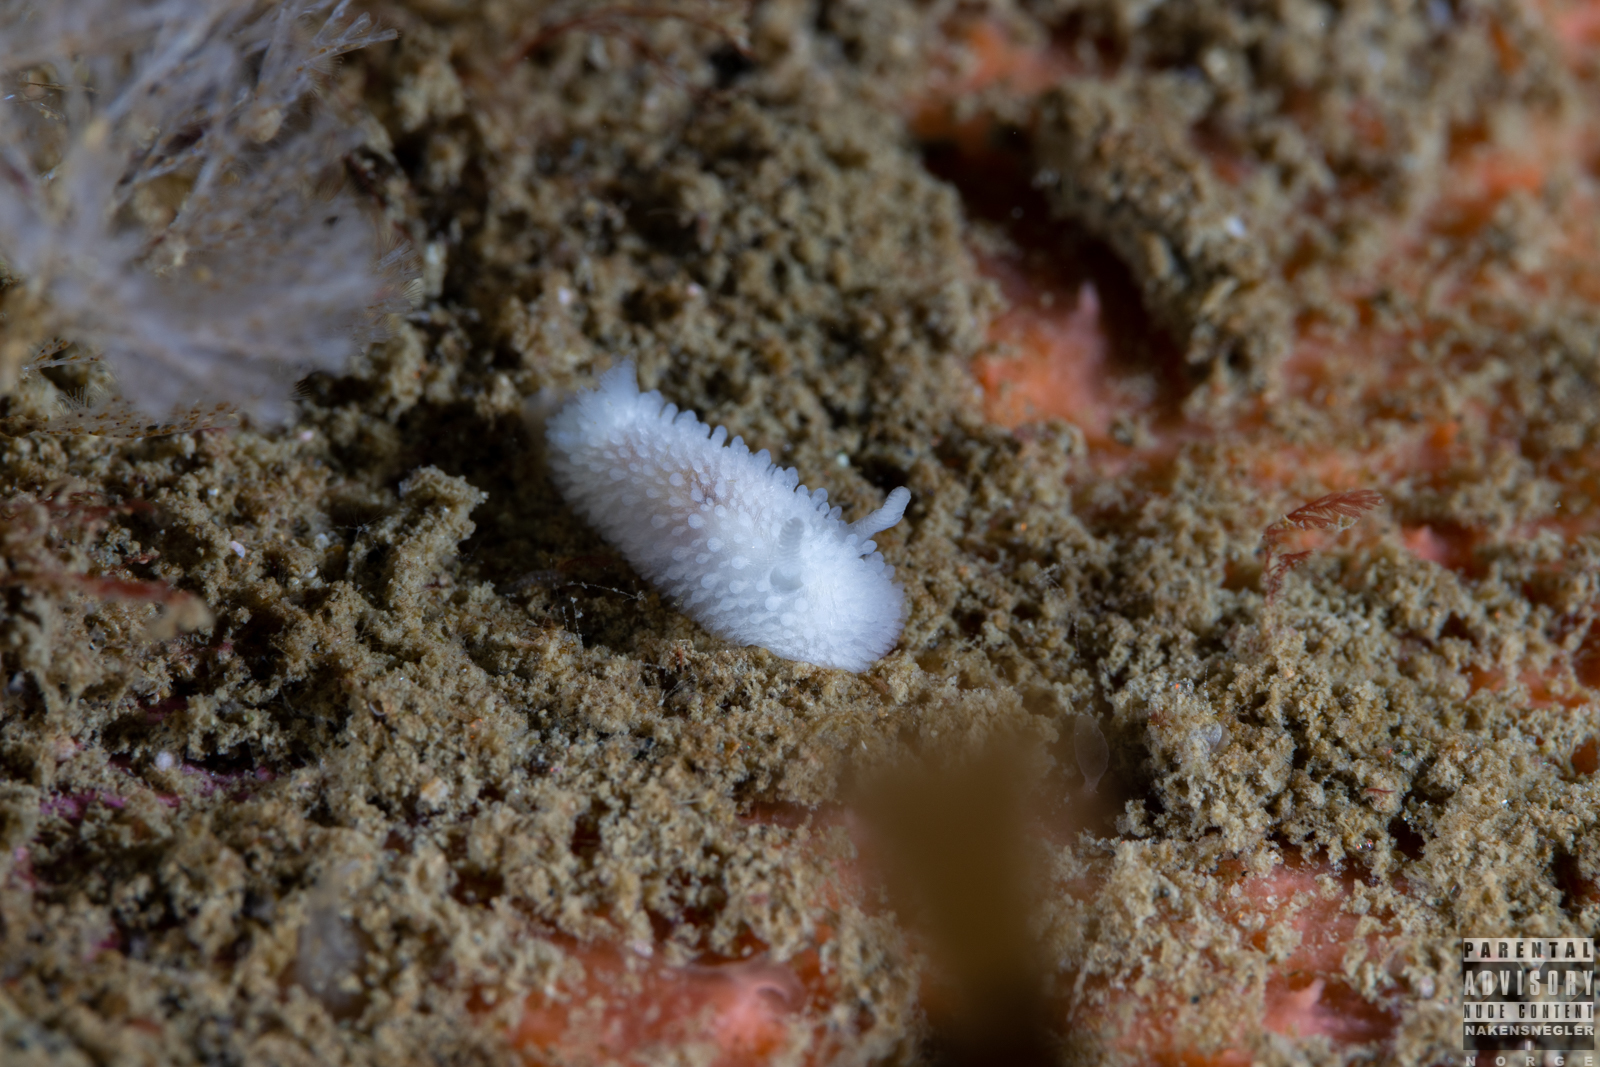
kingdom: Animalia
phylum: Mollusca
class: Gastropoda
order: Nudibranchia
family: Onchidorididae
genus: Onchidoris
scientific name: Onchidoris muricata
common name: Rough doris
